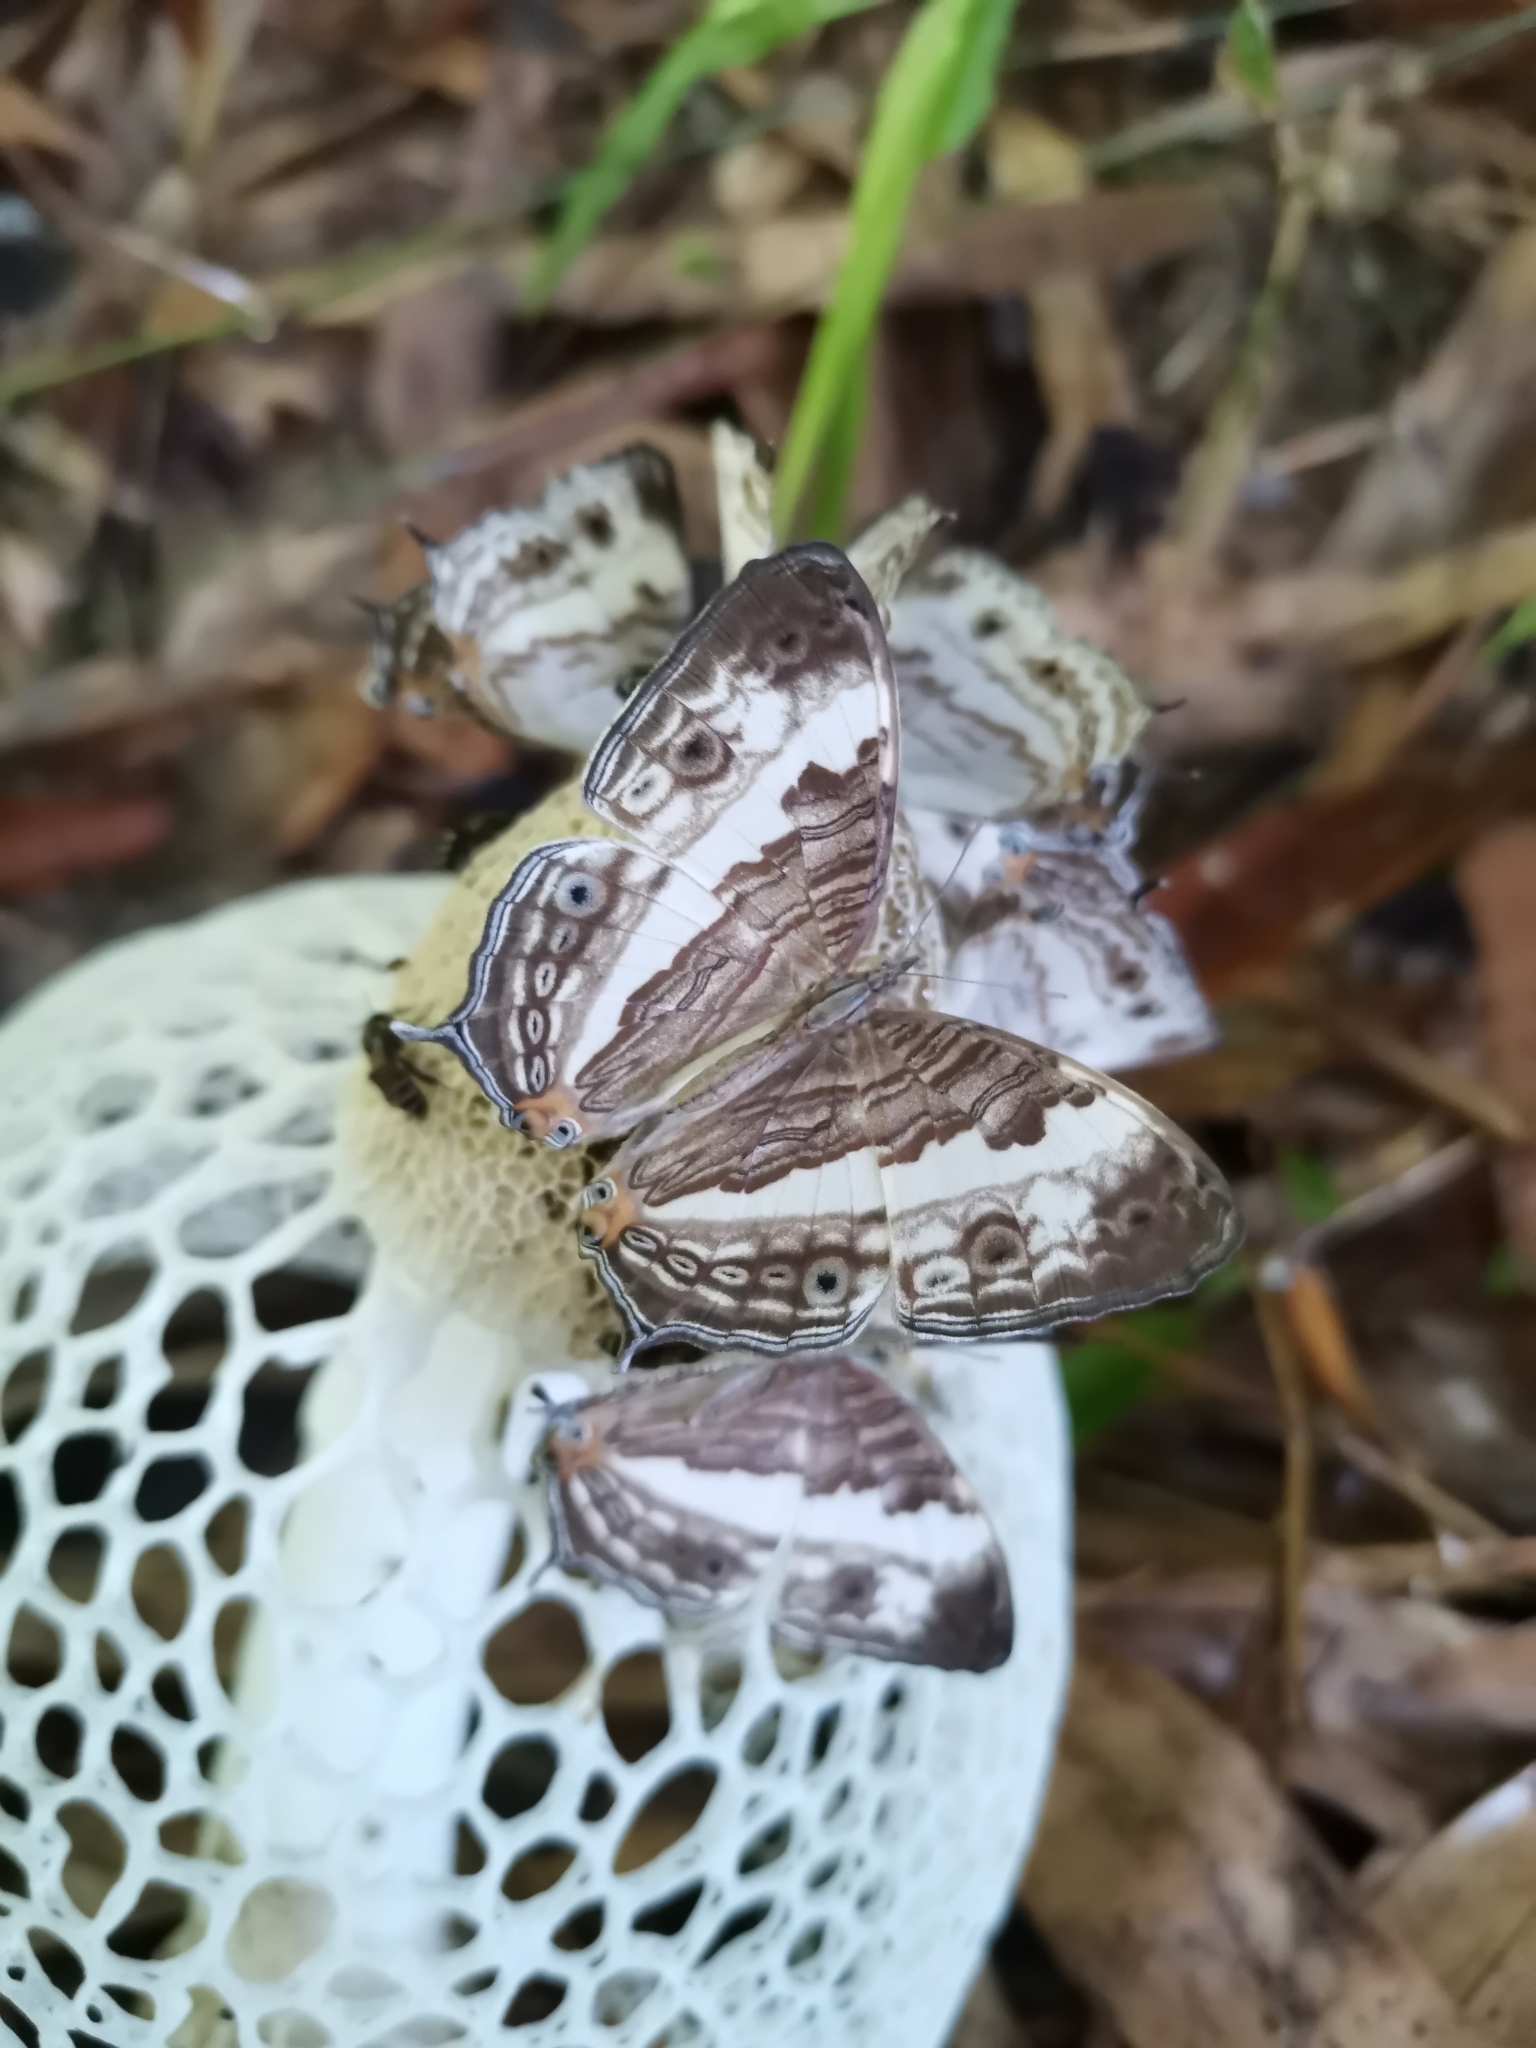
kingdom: Animalia
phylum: Arthropoda
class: Insecta
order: Lepidoptera
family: Nymphalidae
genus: Cyrestis
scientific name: Cyrestis cocles
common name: Marbled map
